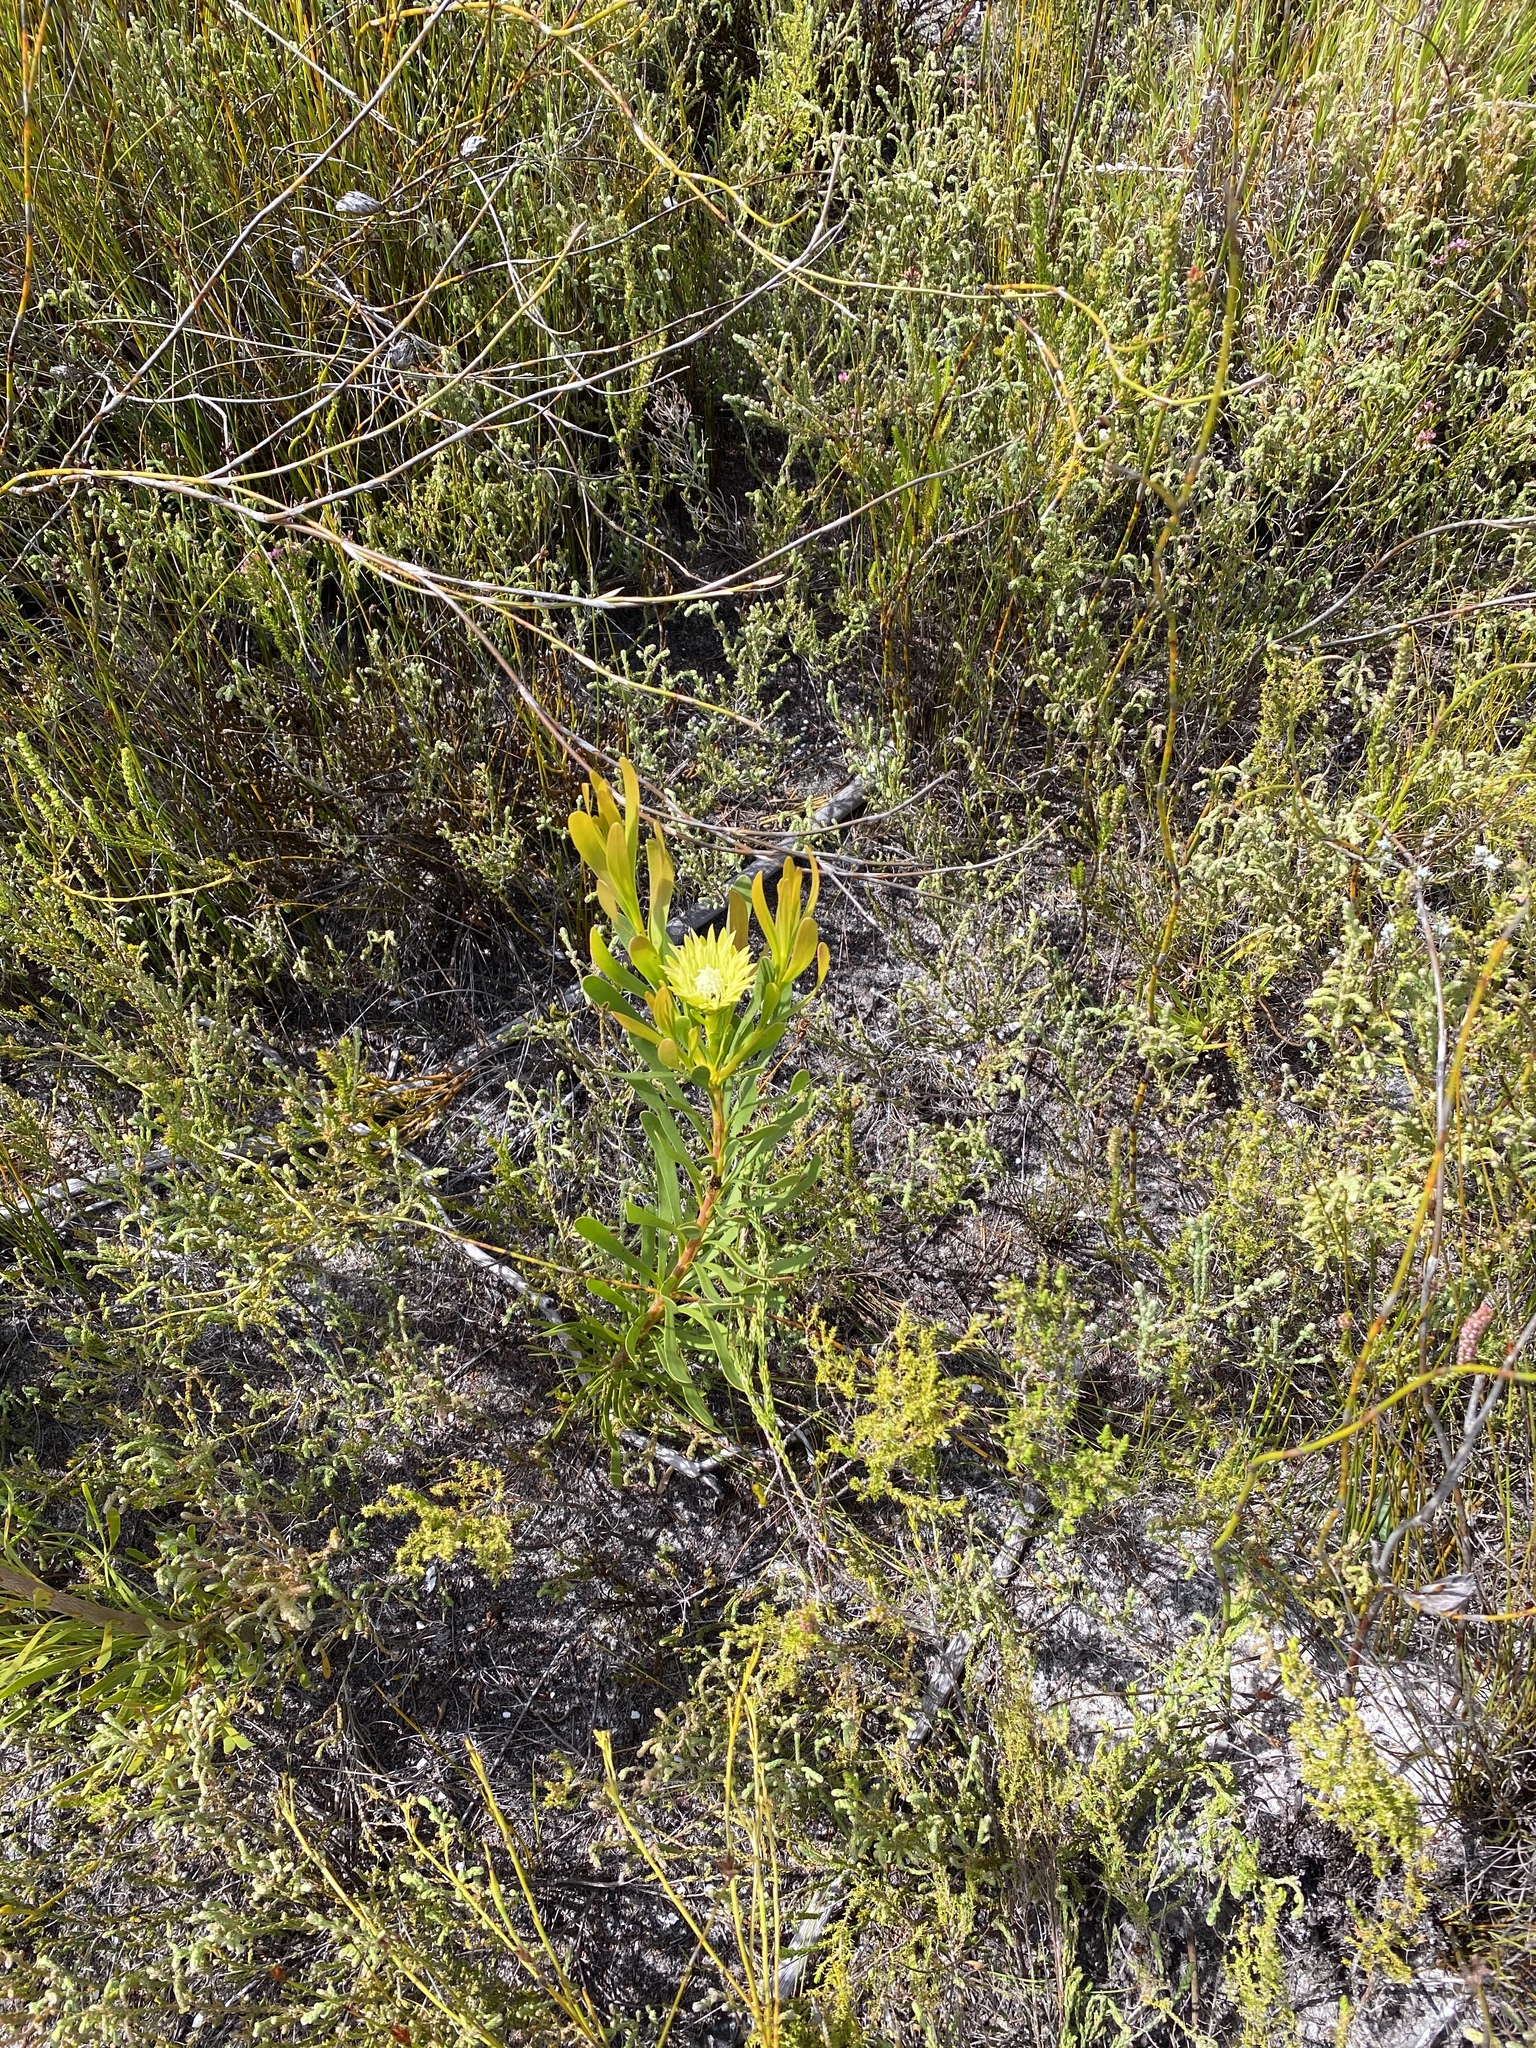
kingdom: Plantae
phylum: Tracheophyta
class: Magnoliopsida
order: Proteales
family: Proteaceae
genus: Aulax
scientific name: Aulax umbellata
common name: Broad-leaf featherbush
